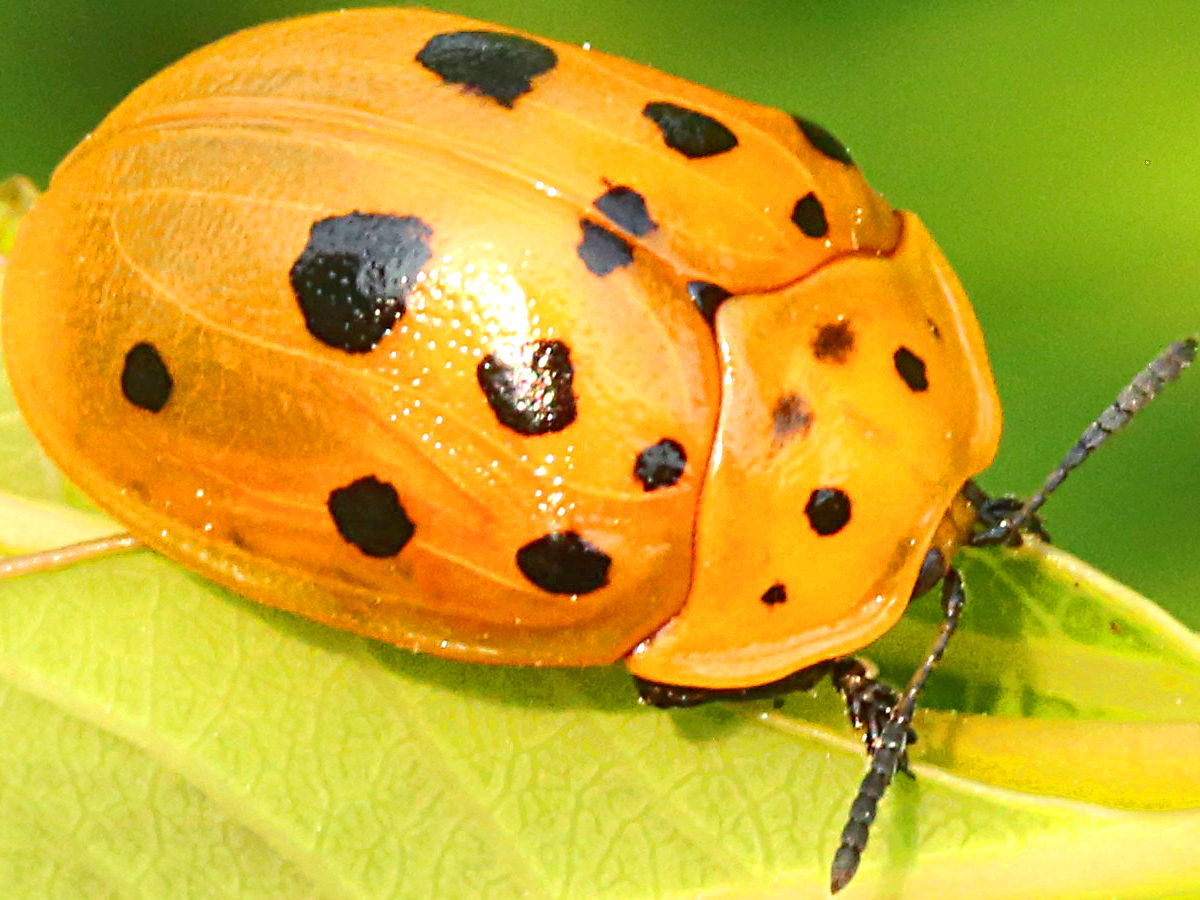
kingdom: Animalia
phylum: Arthropoda
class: Insecta
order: Coleoptera
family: Chrysomelidae
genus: Chelymorpha
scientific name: Chelymorpha cassidea
